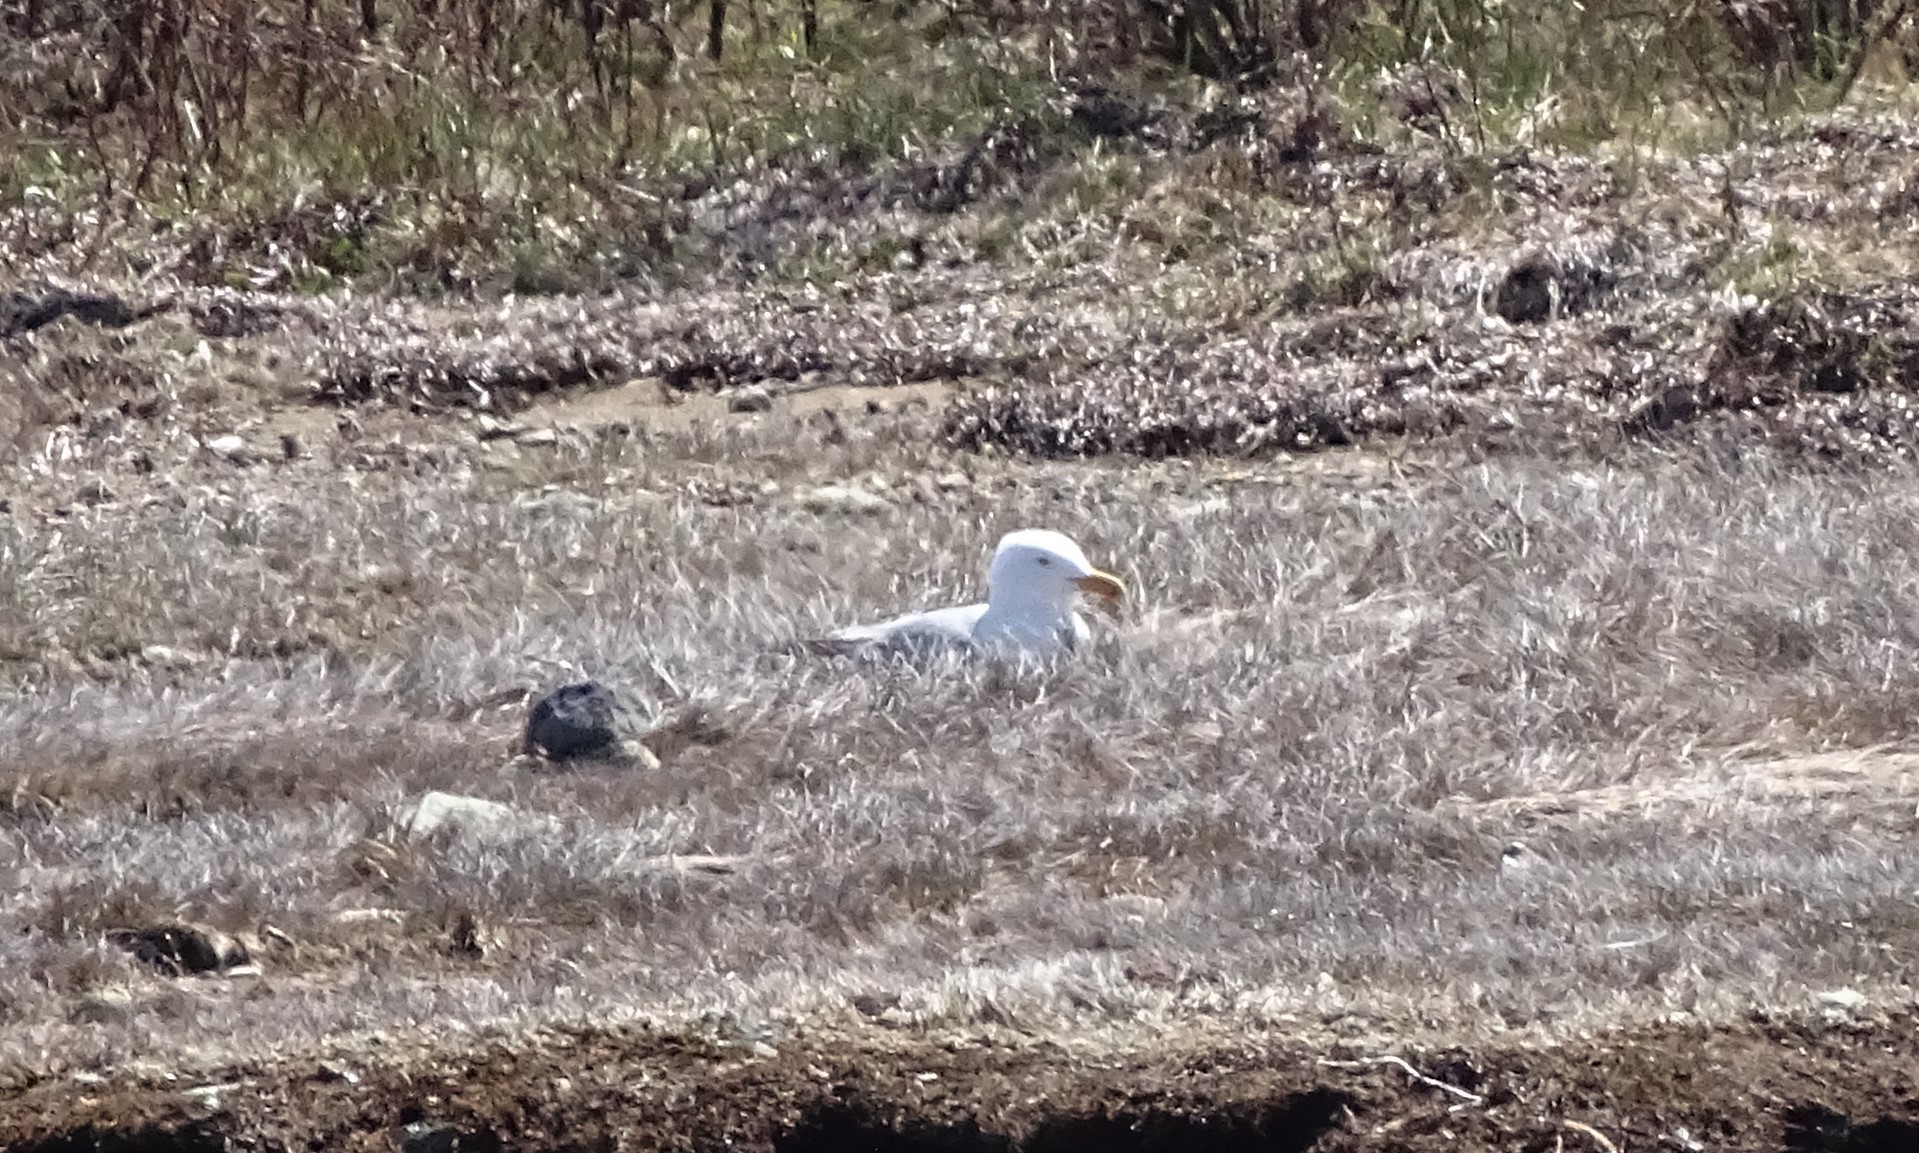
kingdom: Animalia
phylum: Chordata
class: Aves
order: Charadriiformes
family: Laridae
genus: Larus
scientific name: Larus smithsonianus
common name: American herring gull
